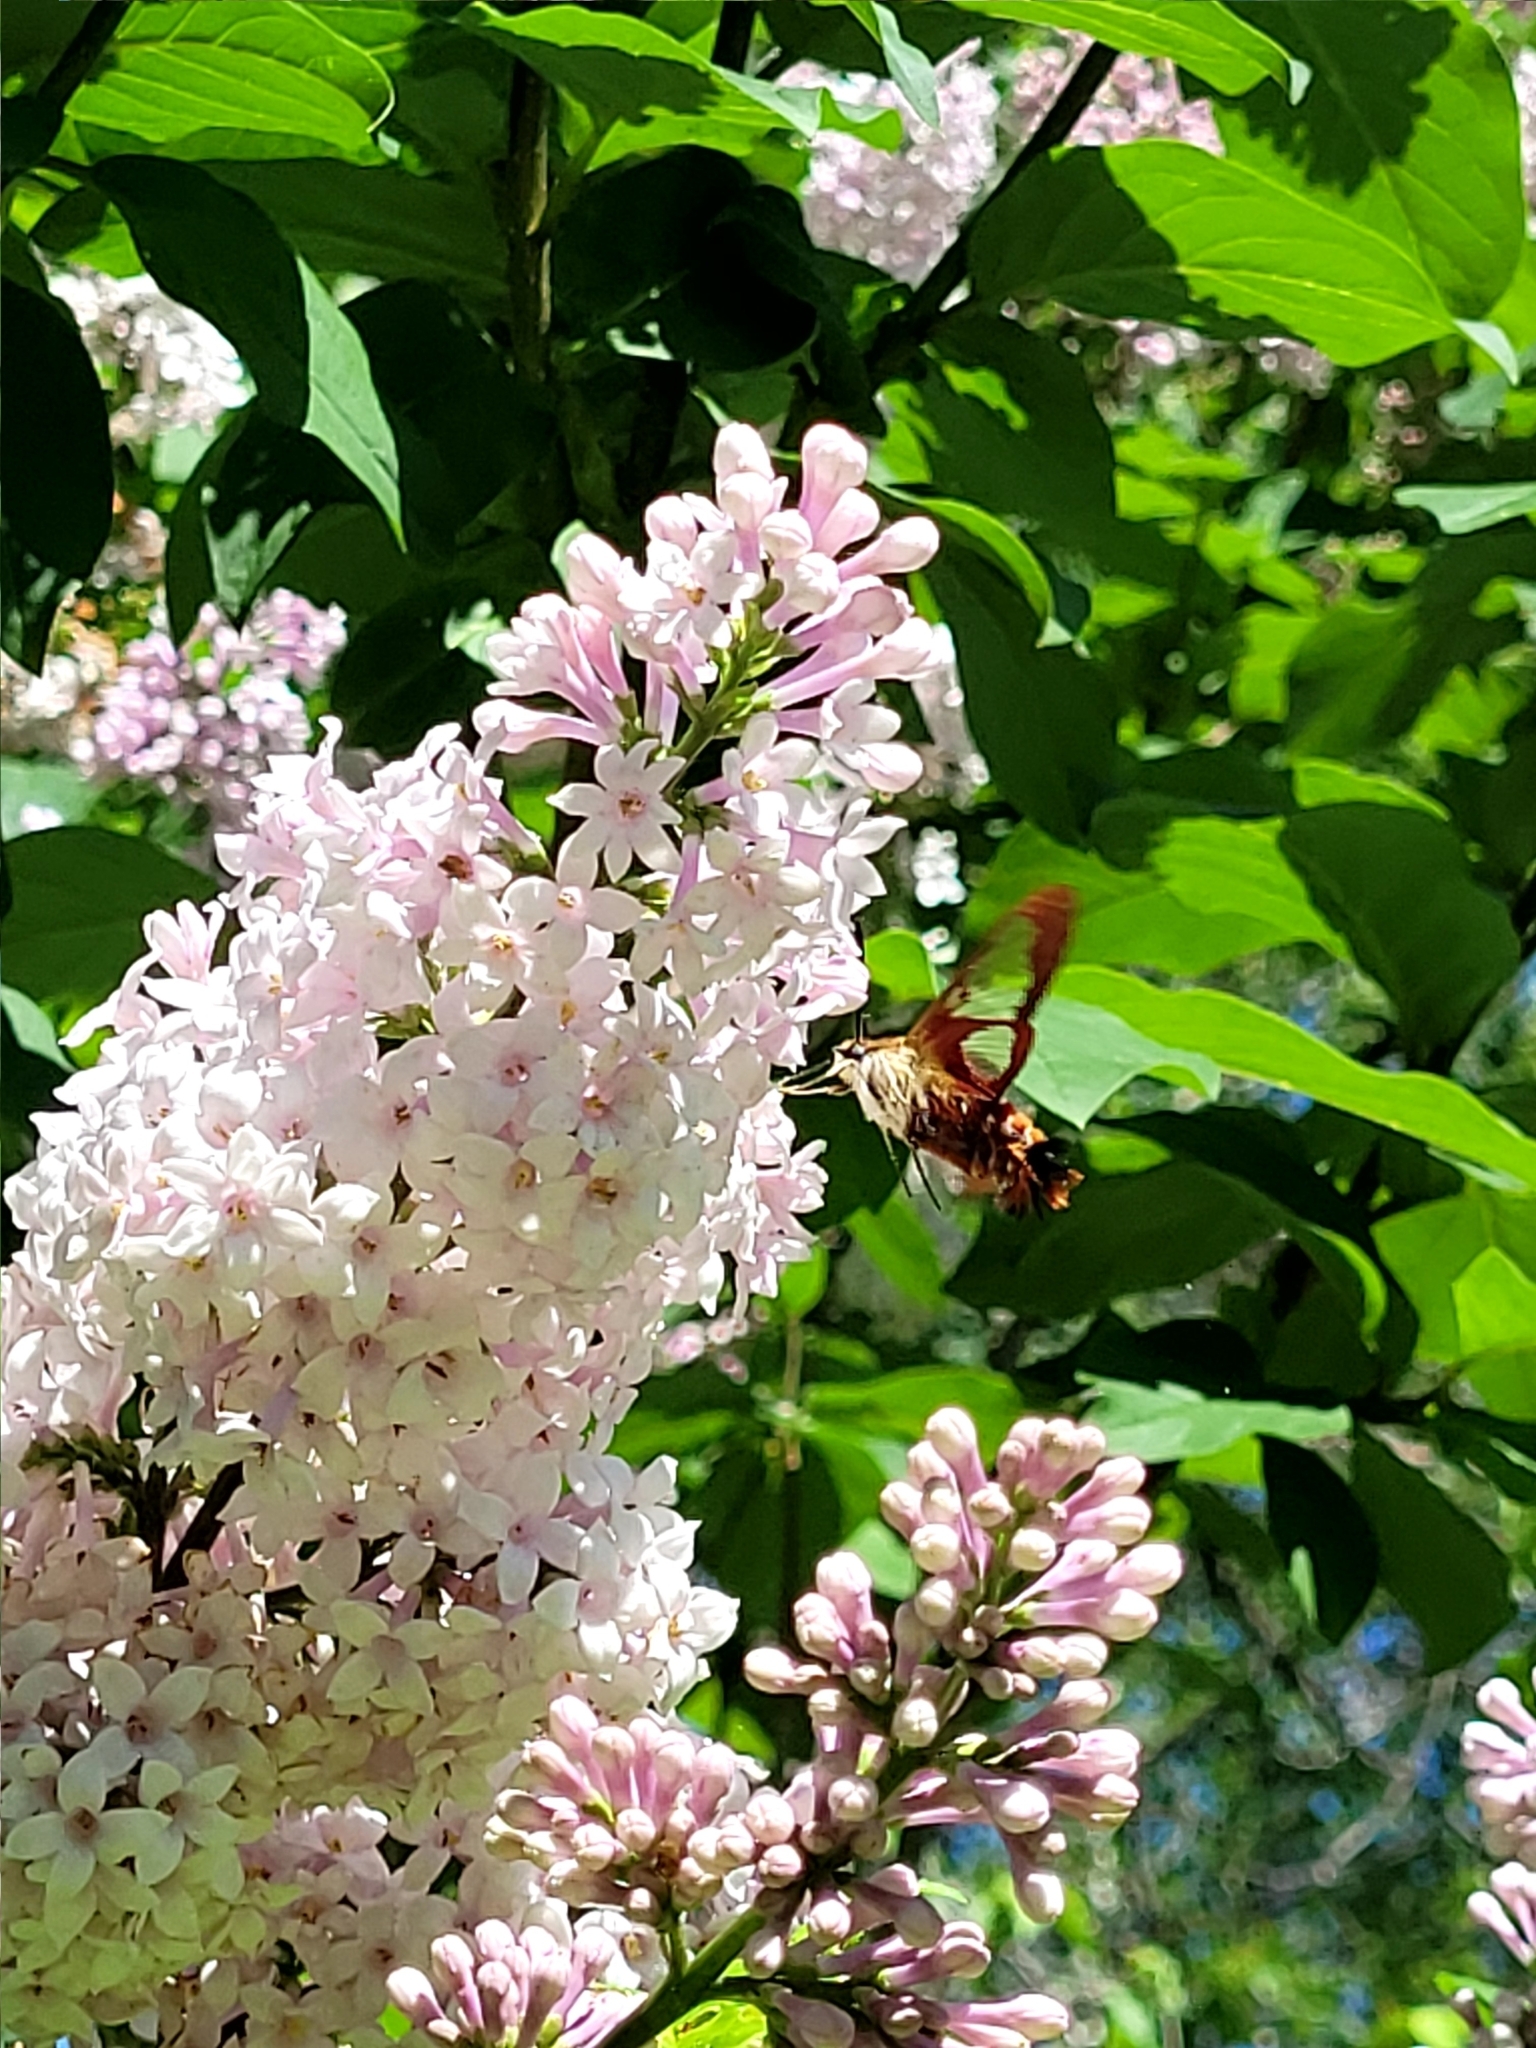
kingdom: Animalia
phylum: Arthropoda
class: Insecta
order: Lepidoptera
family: Sphingidae
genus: Hemaris
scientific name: Hemaris thysbe
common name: Common clear-wing
